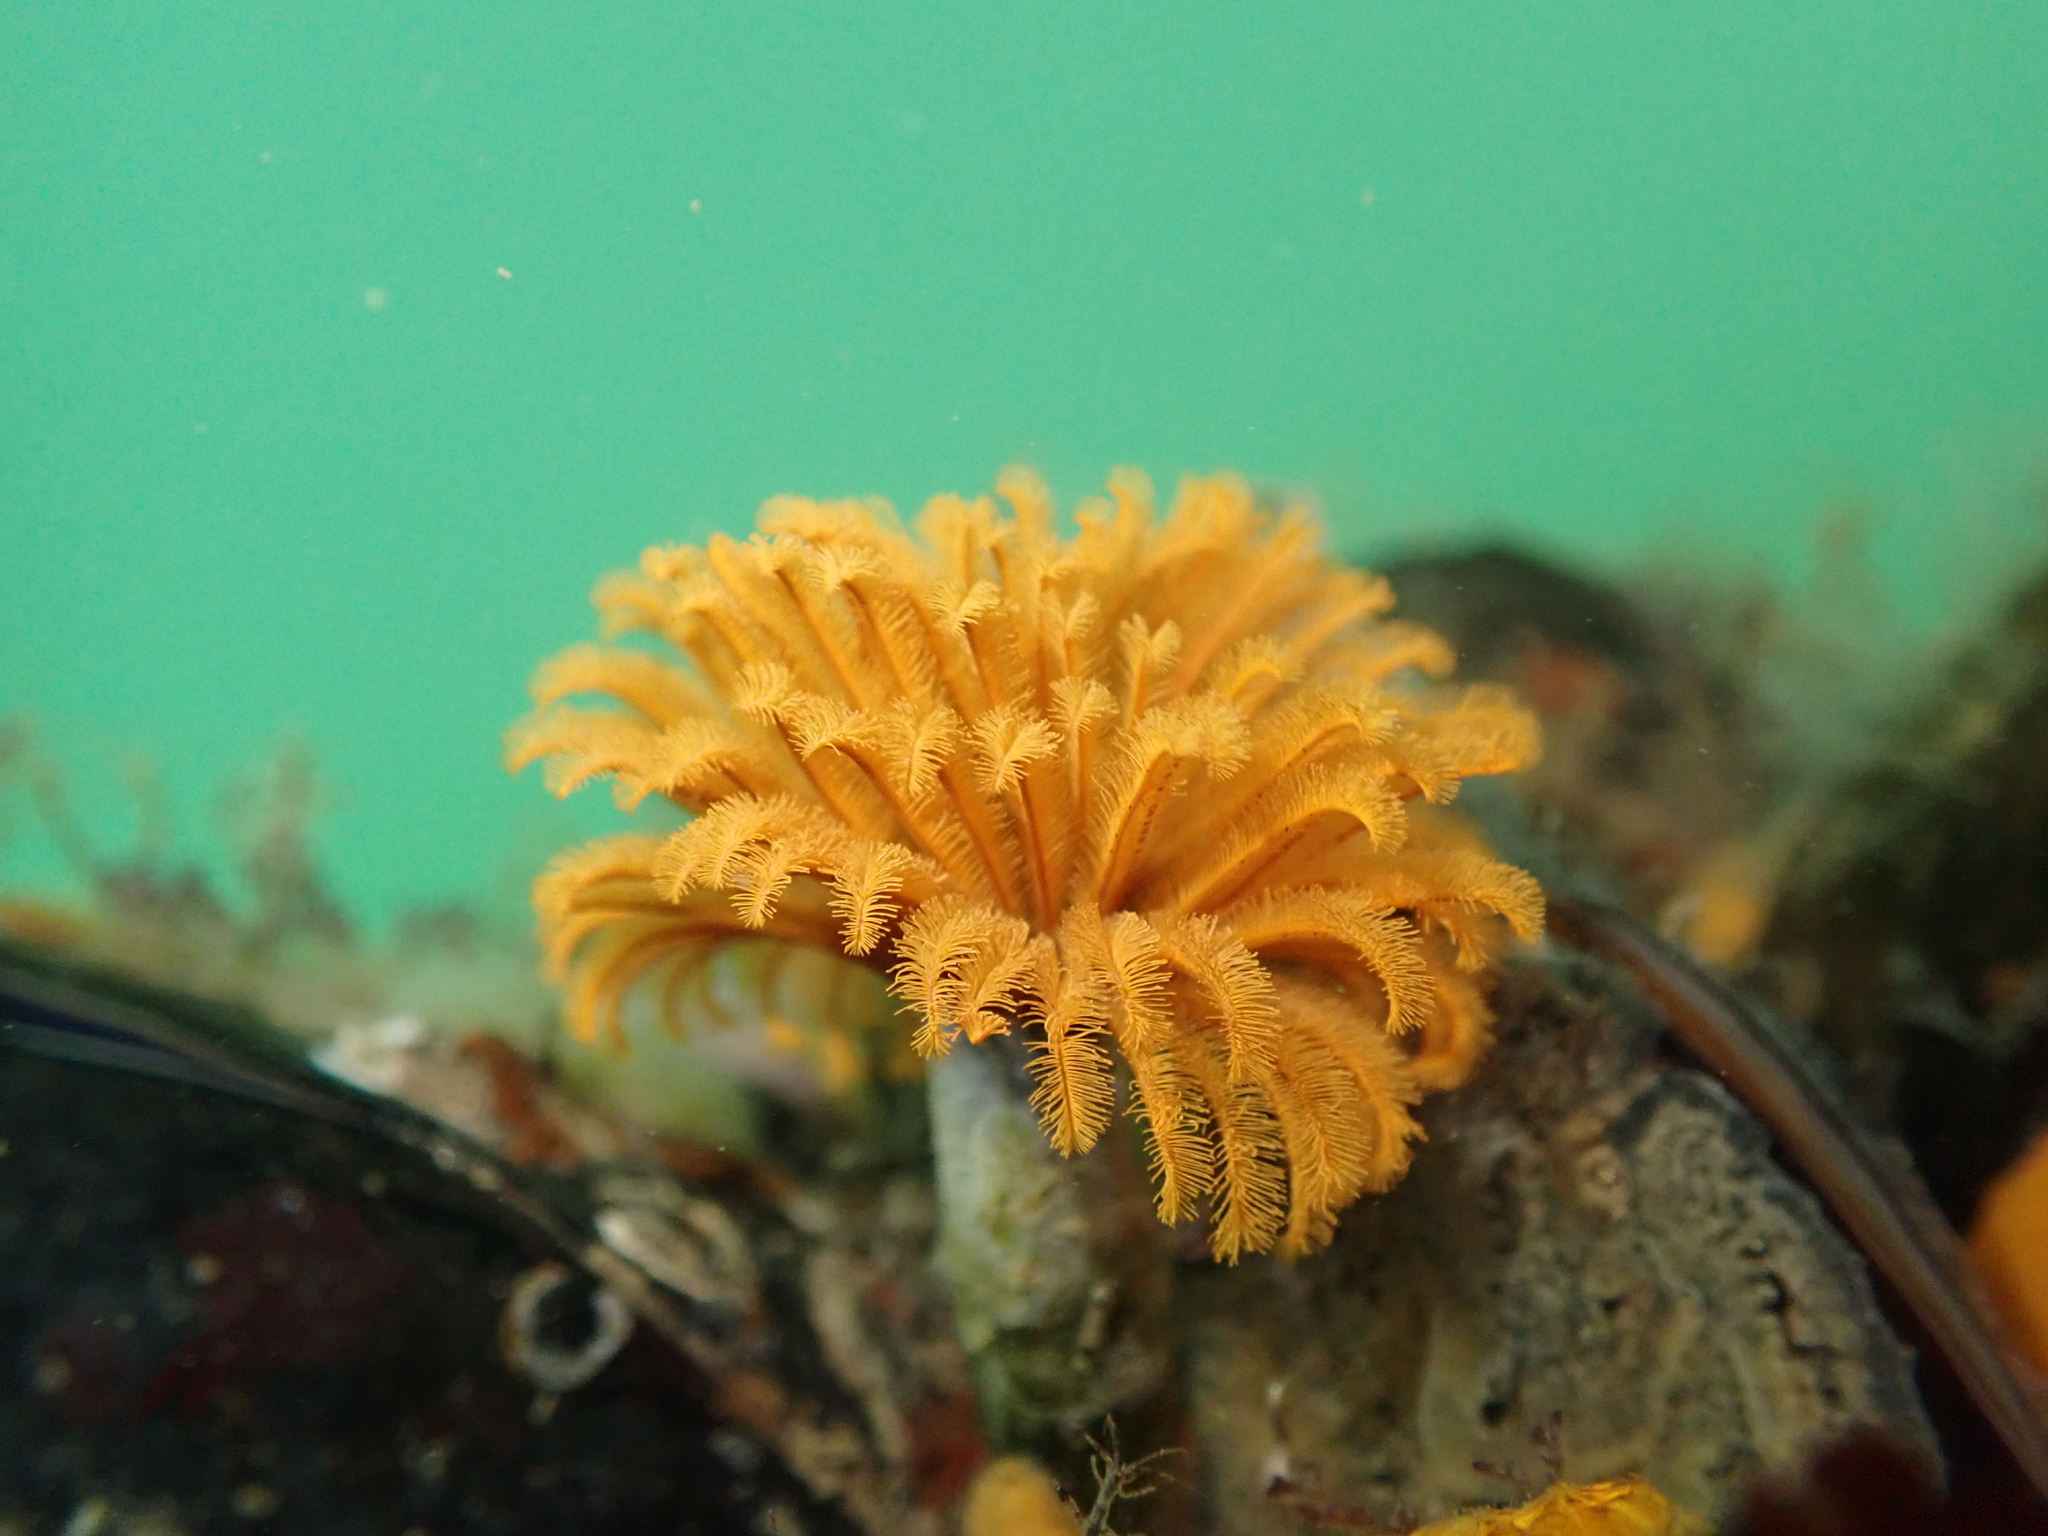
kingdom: Animalia
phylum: Annelida
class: Polychaeta
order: Sabellida
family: Sabellidae
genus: Eudistylia
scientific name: Eudistylia polymorpha
